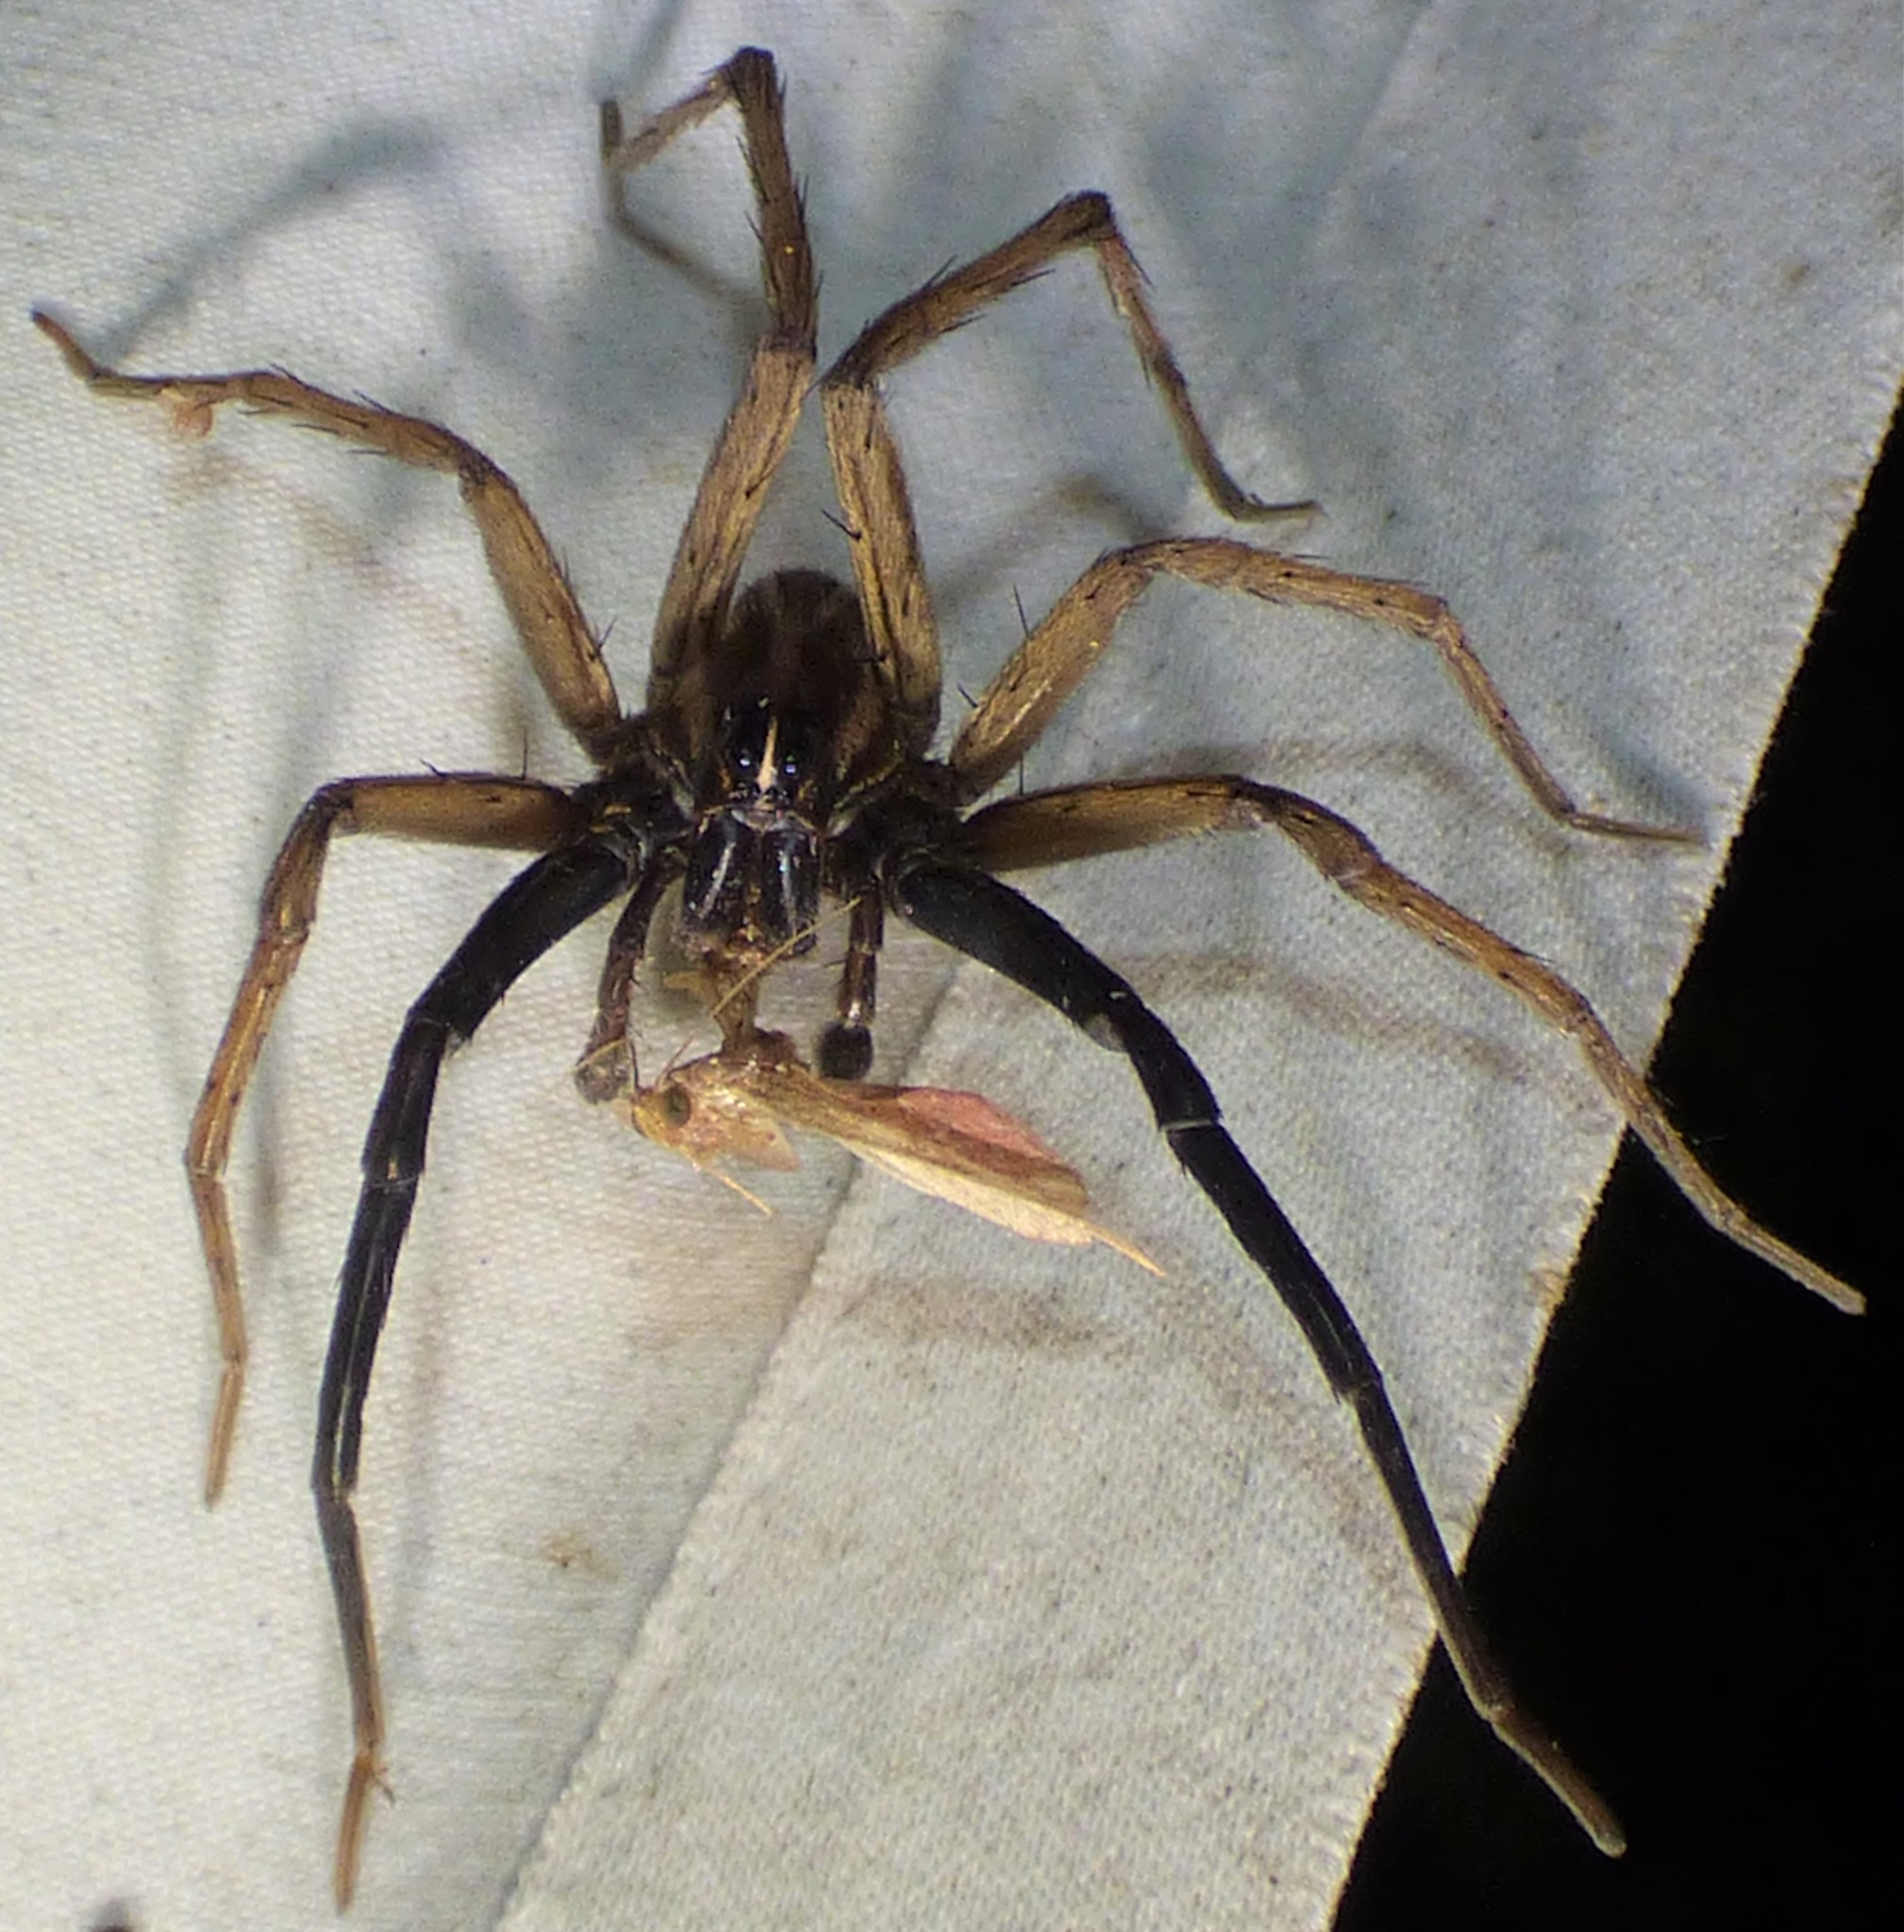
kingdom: Animalia
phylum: Arthropoda
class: Arachnida
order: Araneae
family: Lycosidae
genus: Rabidosa
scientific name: Rabidosa rabida
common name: Rabid wolf spider
